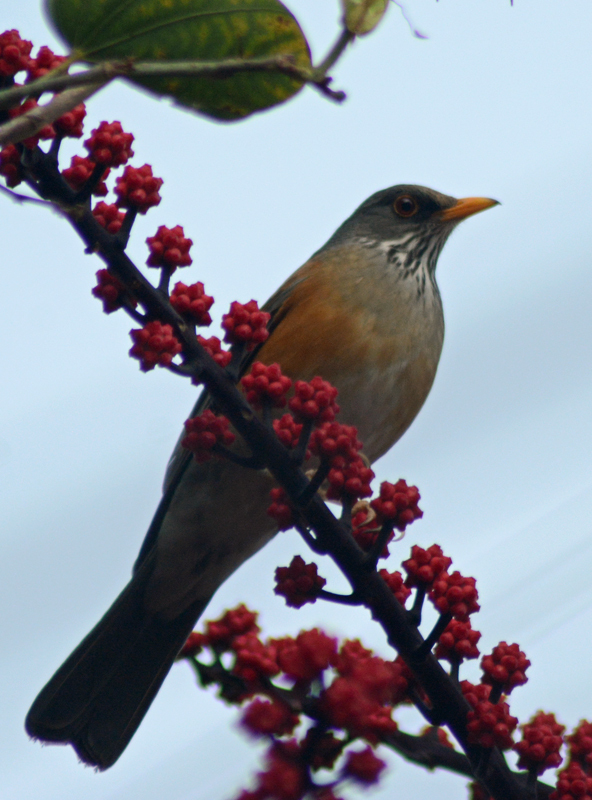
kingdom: Animalia
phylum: Chordata
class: Aves
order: Passeriformes
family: Turdidae
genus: Turdus
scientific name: Turdus rufopalliatus
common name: Rufous-backed robin
